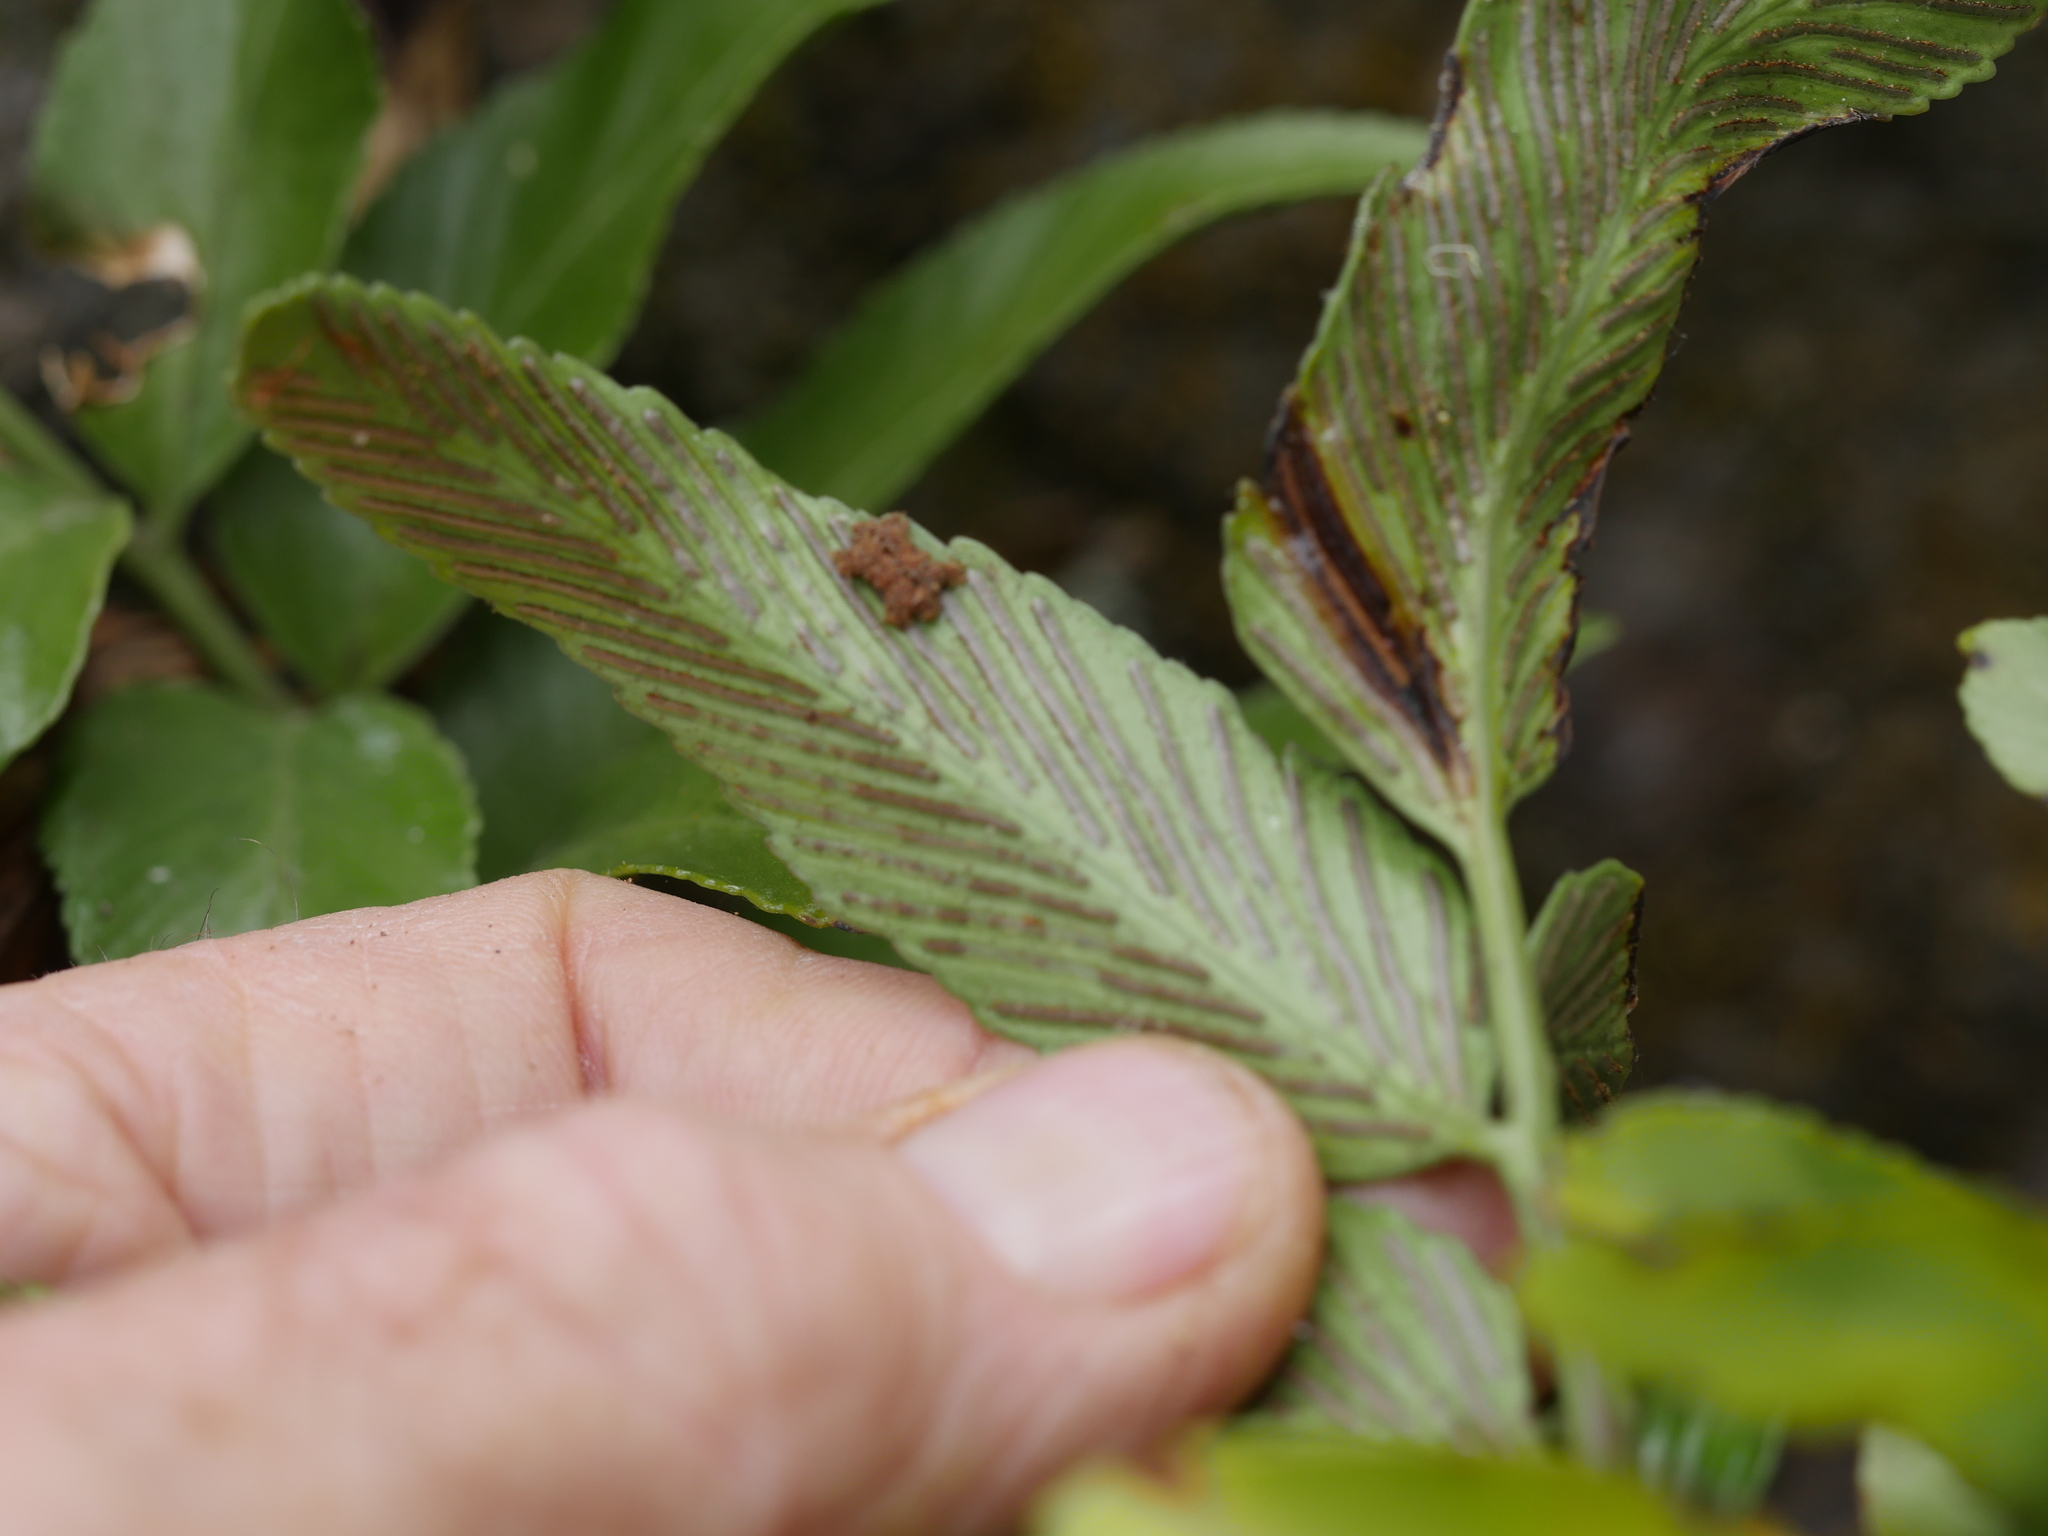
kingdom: Plantae
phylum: Tracheophyta
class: Polypodiopsida
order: Polypodiales
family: Aspleniaceae
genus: Asplenium
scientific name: Asplenium oblongifolium
